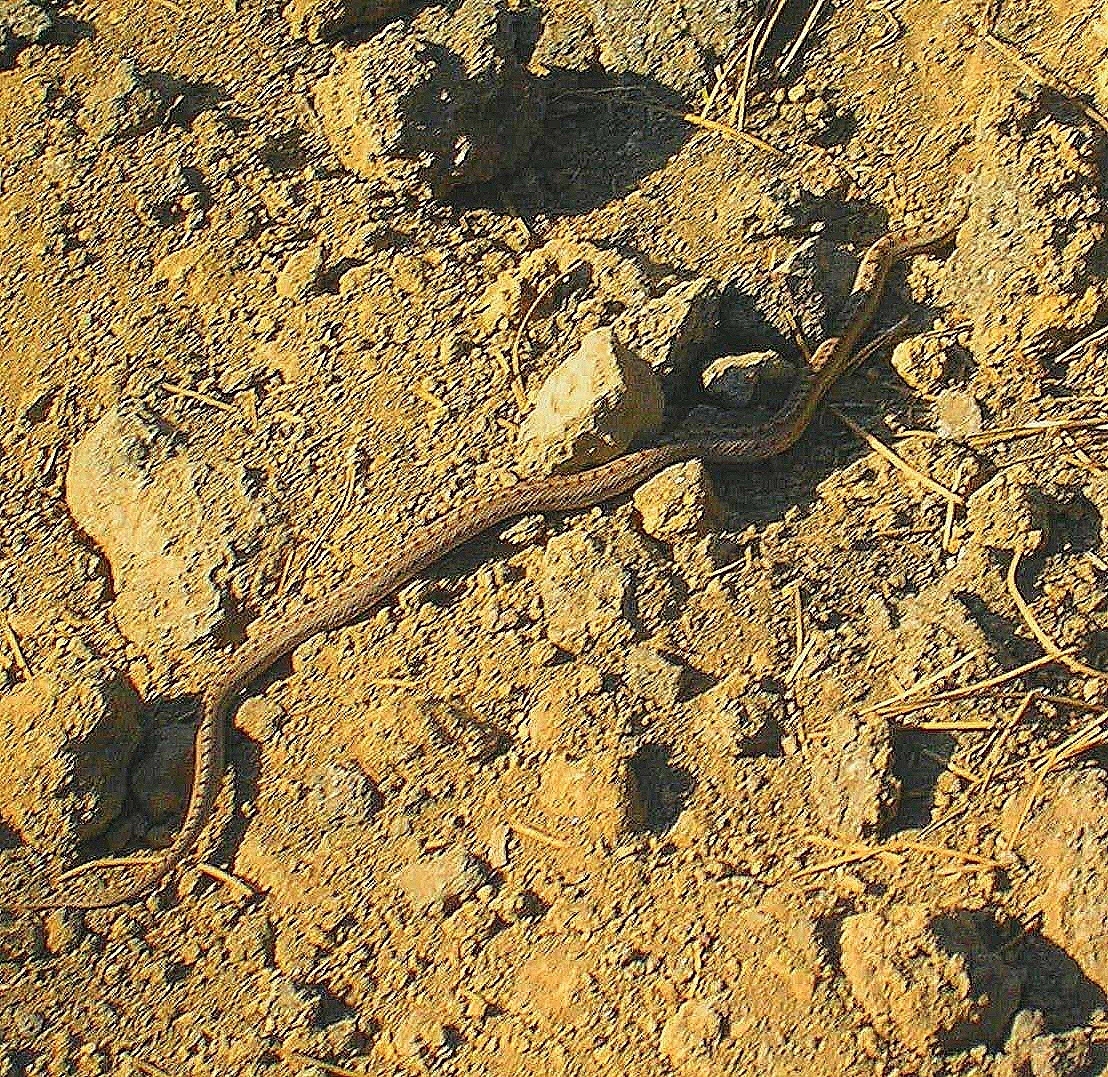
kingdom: Animalia
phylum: Chordata
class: Squamata
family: Colubridae
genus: Coronella
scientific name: Coronella austriaca
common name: Smooth snake
